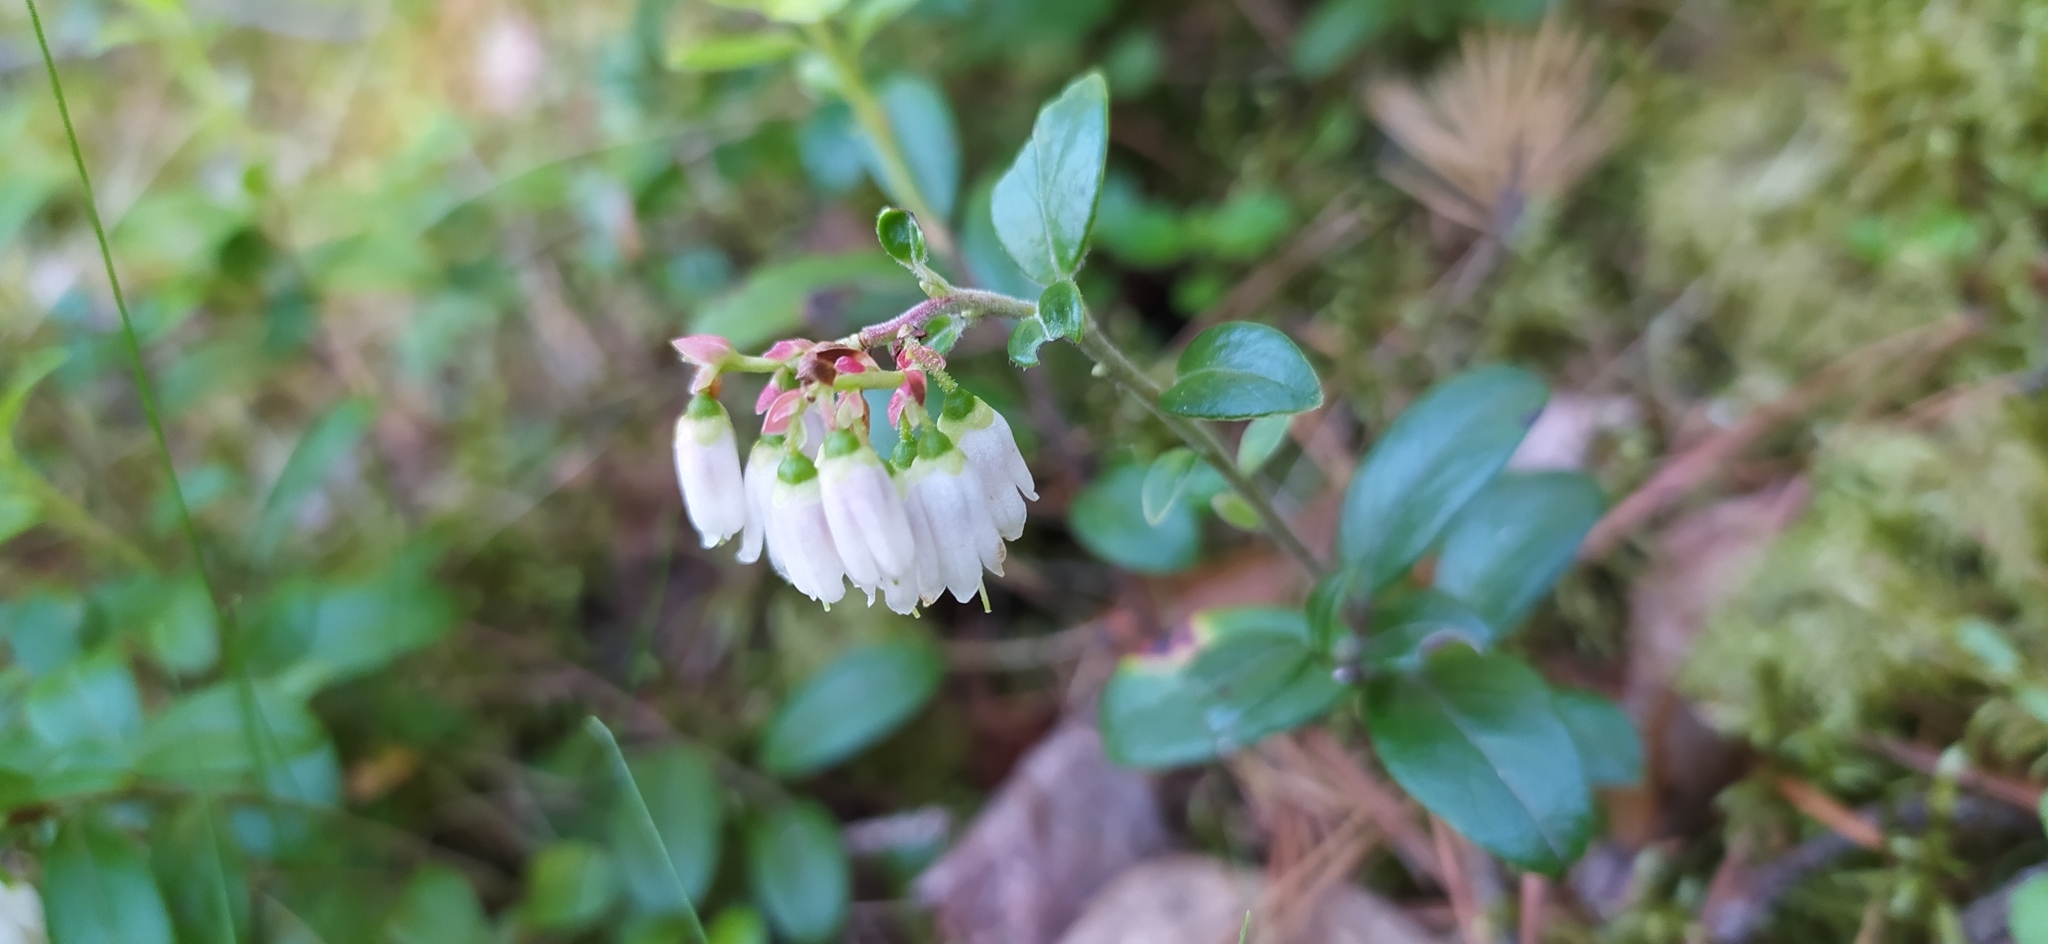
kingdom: Plantae
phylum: Tracheophyta
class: Magnoliopsida
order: Ericales
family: Ericaceae
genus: Vaccinium
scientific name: Vaccinium vitis-idaea
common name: Cowberry
